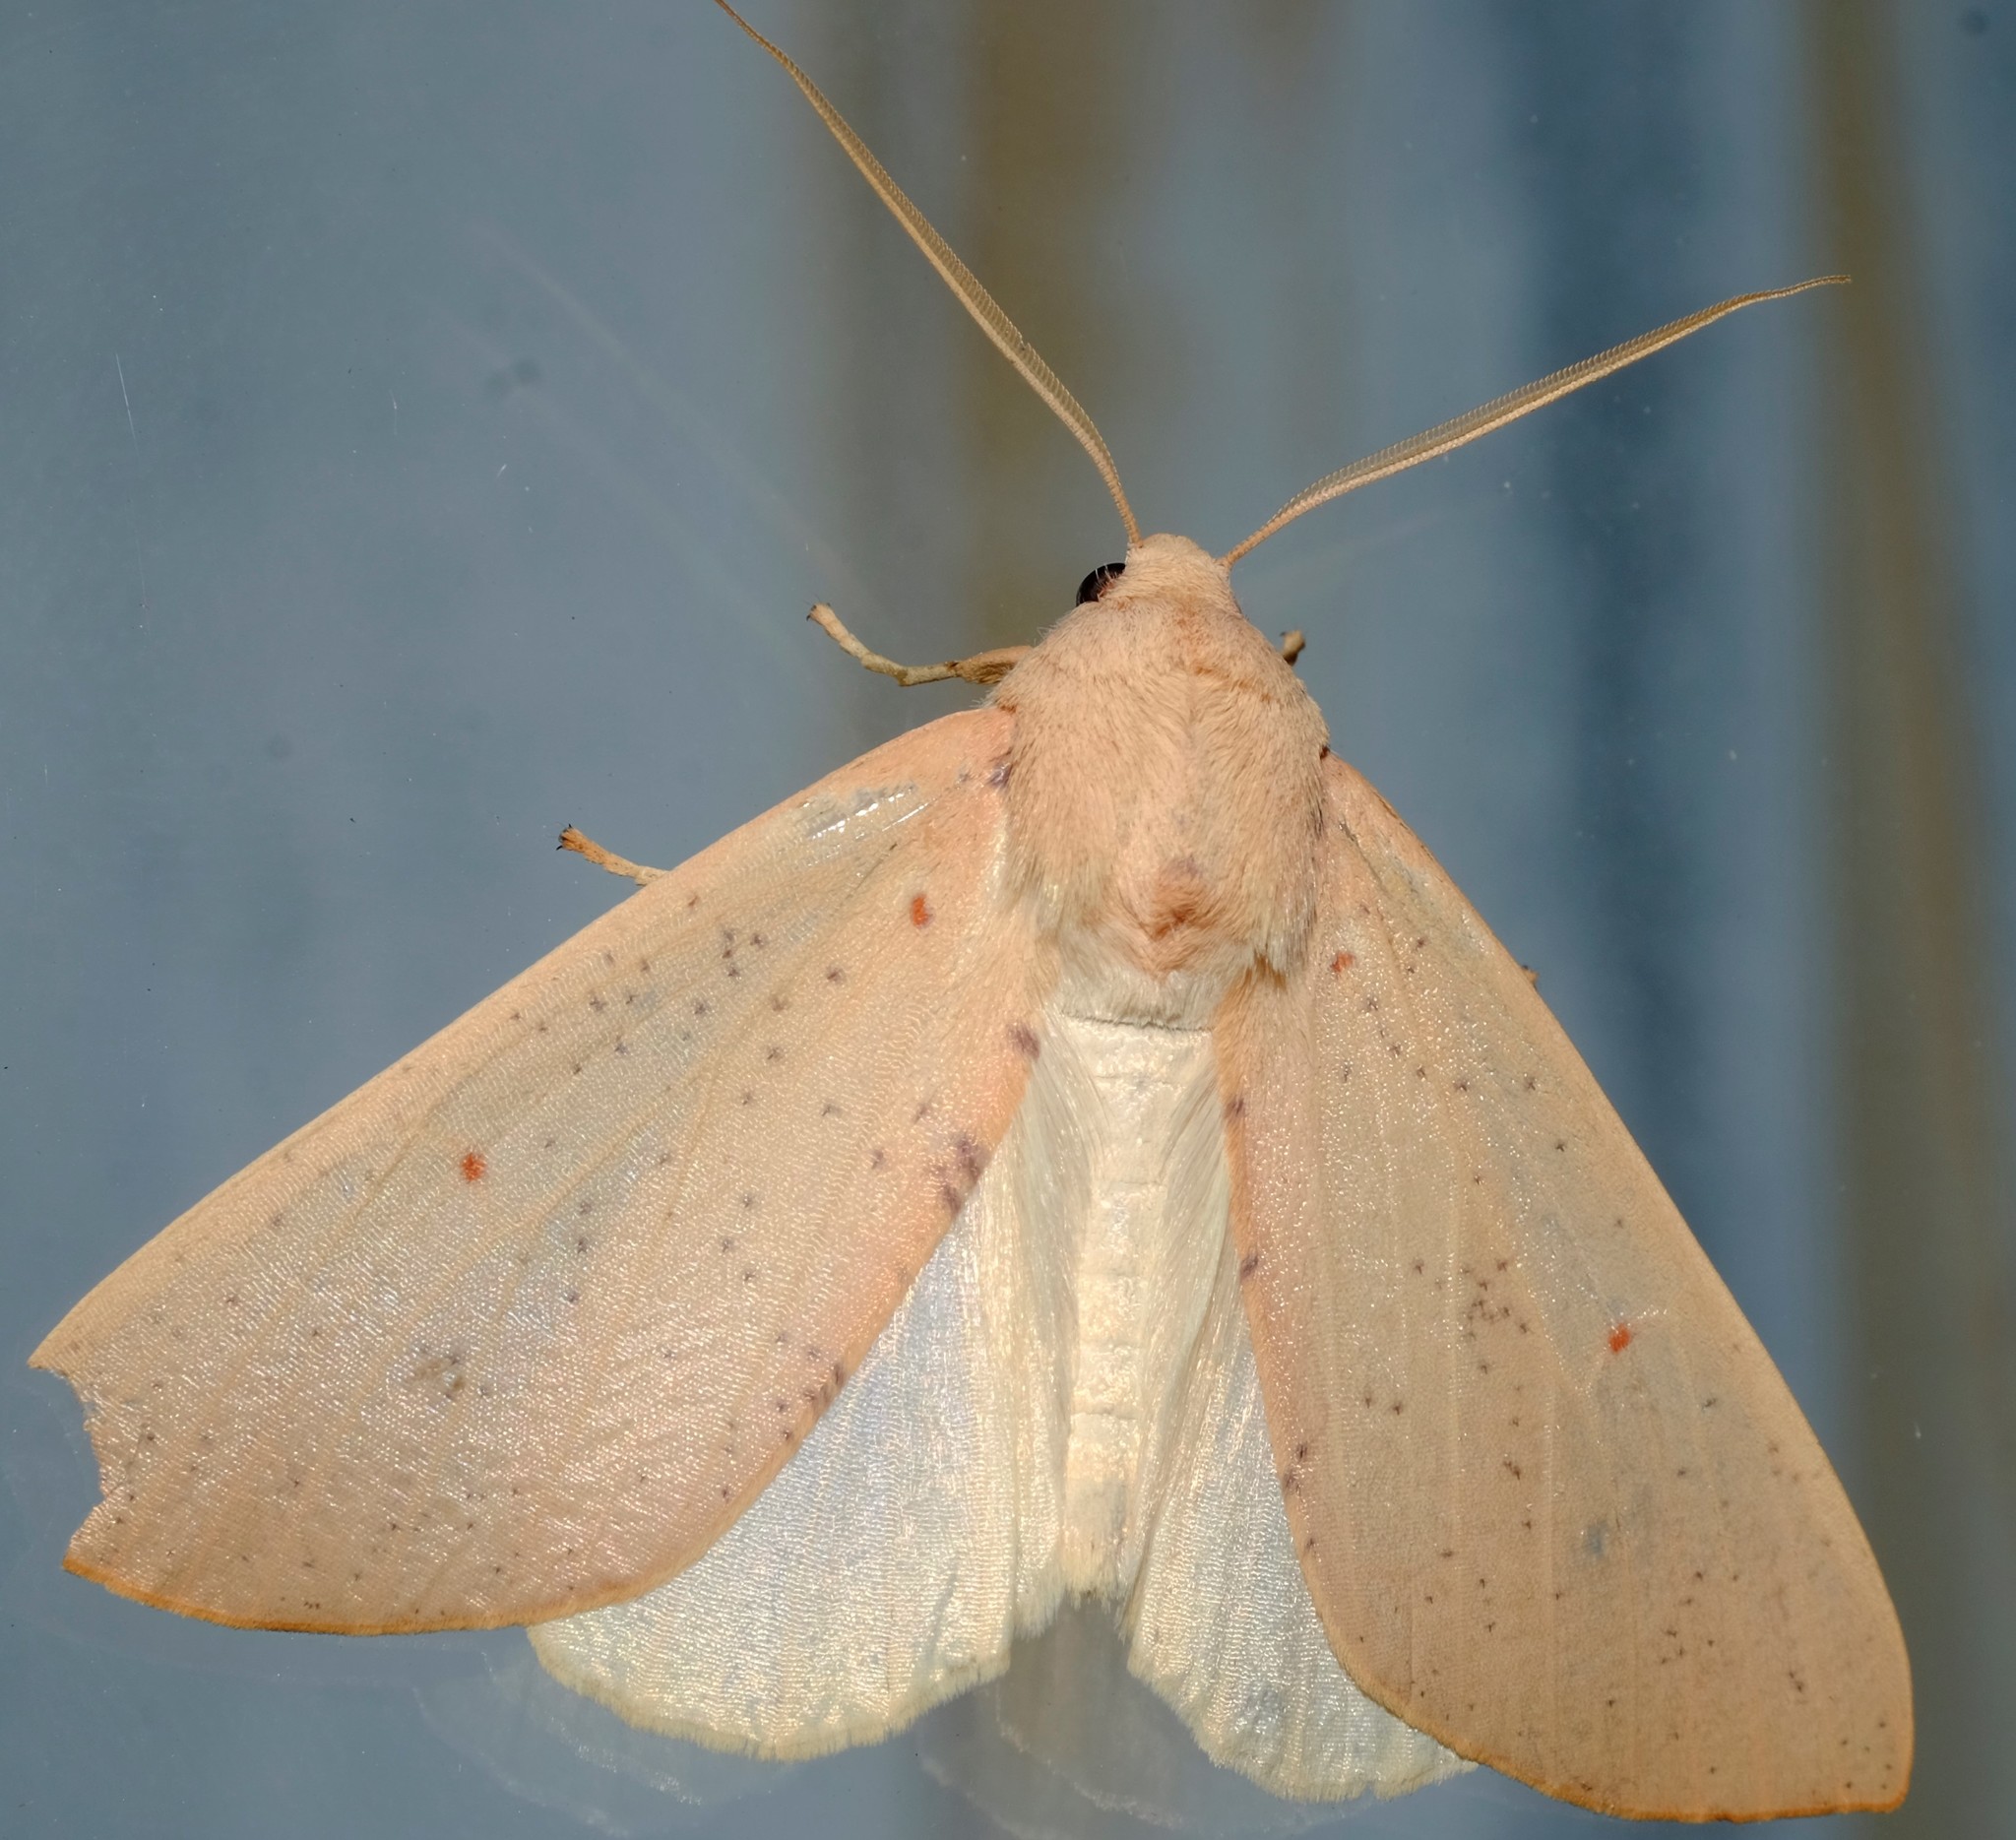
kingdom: Animalia
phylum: Arthropoda
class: Insecta
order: Lepidoptera
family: Geometridae
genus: Plesanemma
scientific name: Plesanemma fucata
